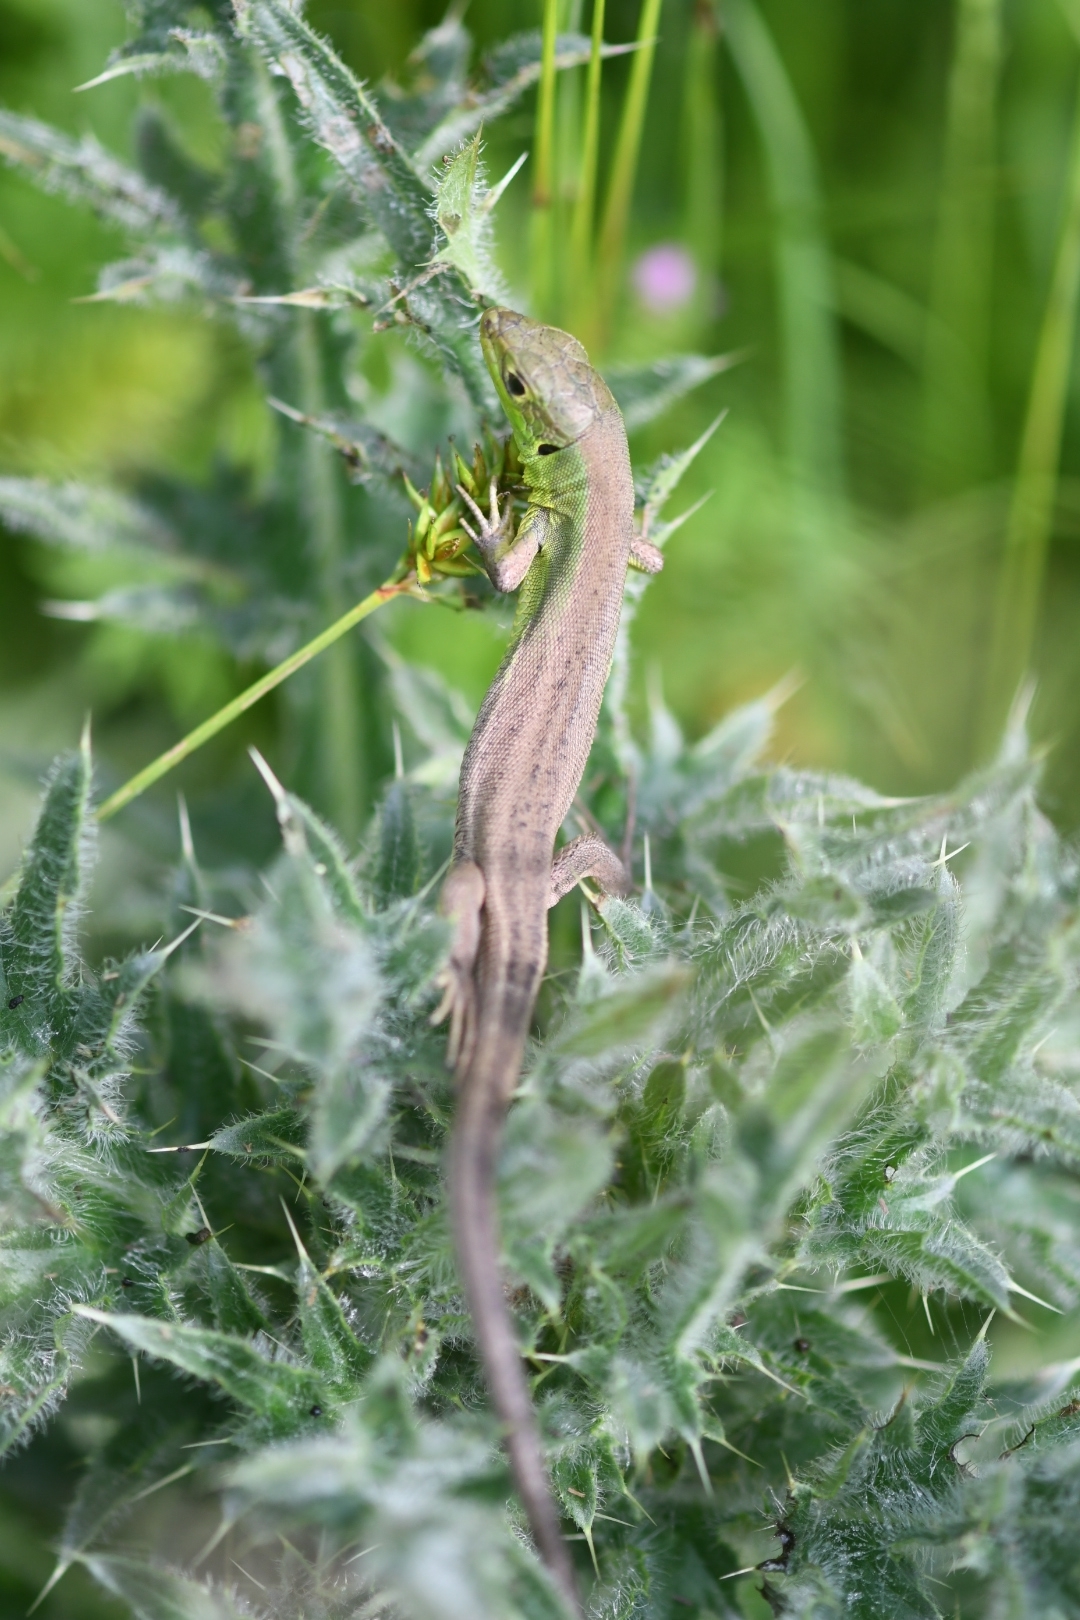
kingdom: Animalia
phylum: Chordata
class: Squamata
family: Lacertidae
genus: Lacerta
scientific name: Lacerta bilineata
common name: Western green lizard
